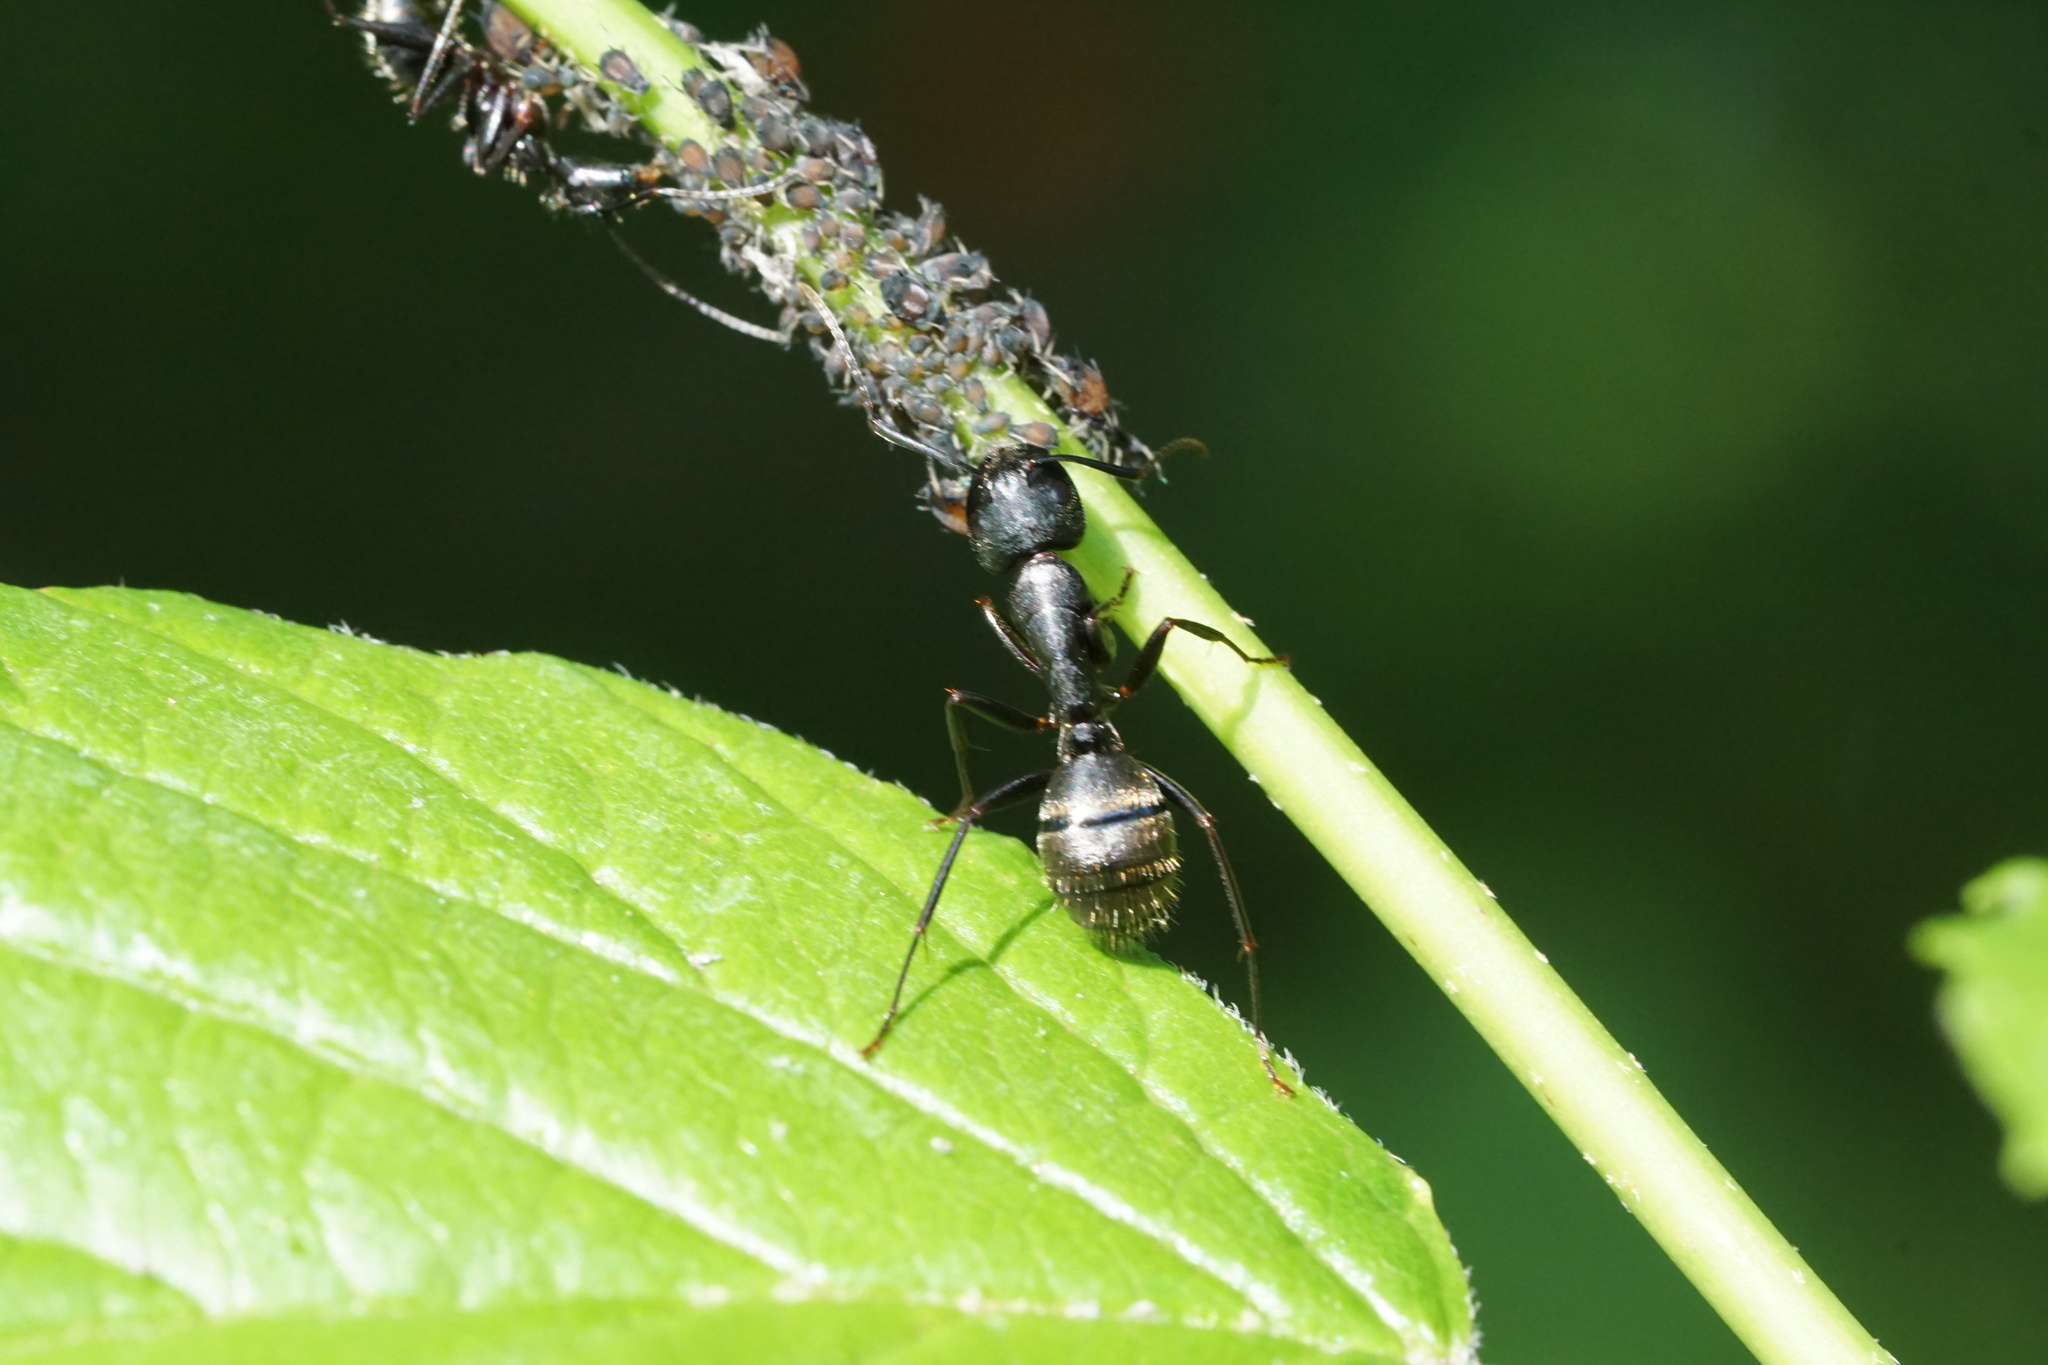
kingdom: Animalia
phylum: Arthropoda
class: Insecta
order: Hymenoptera
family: Formicidae
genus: Camponotus
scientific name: Camponotus pennsylvanicus
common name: Black carpenter ant
